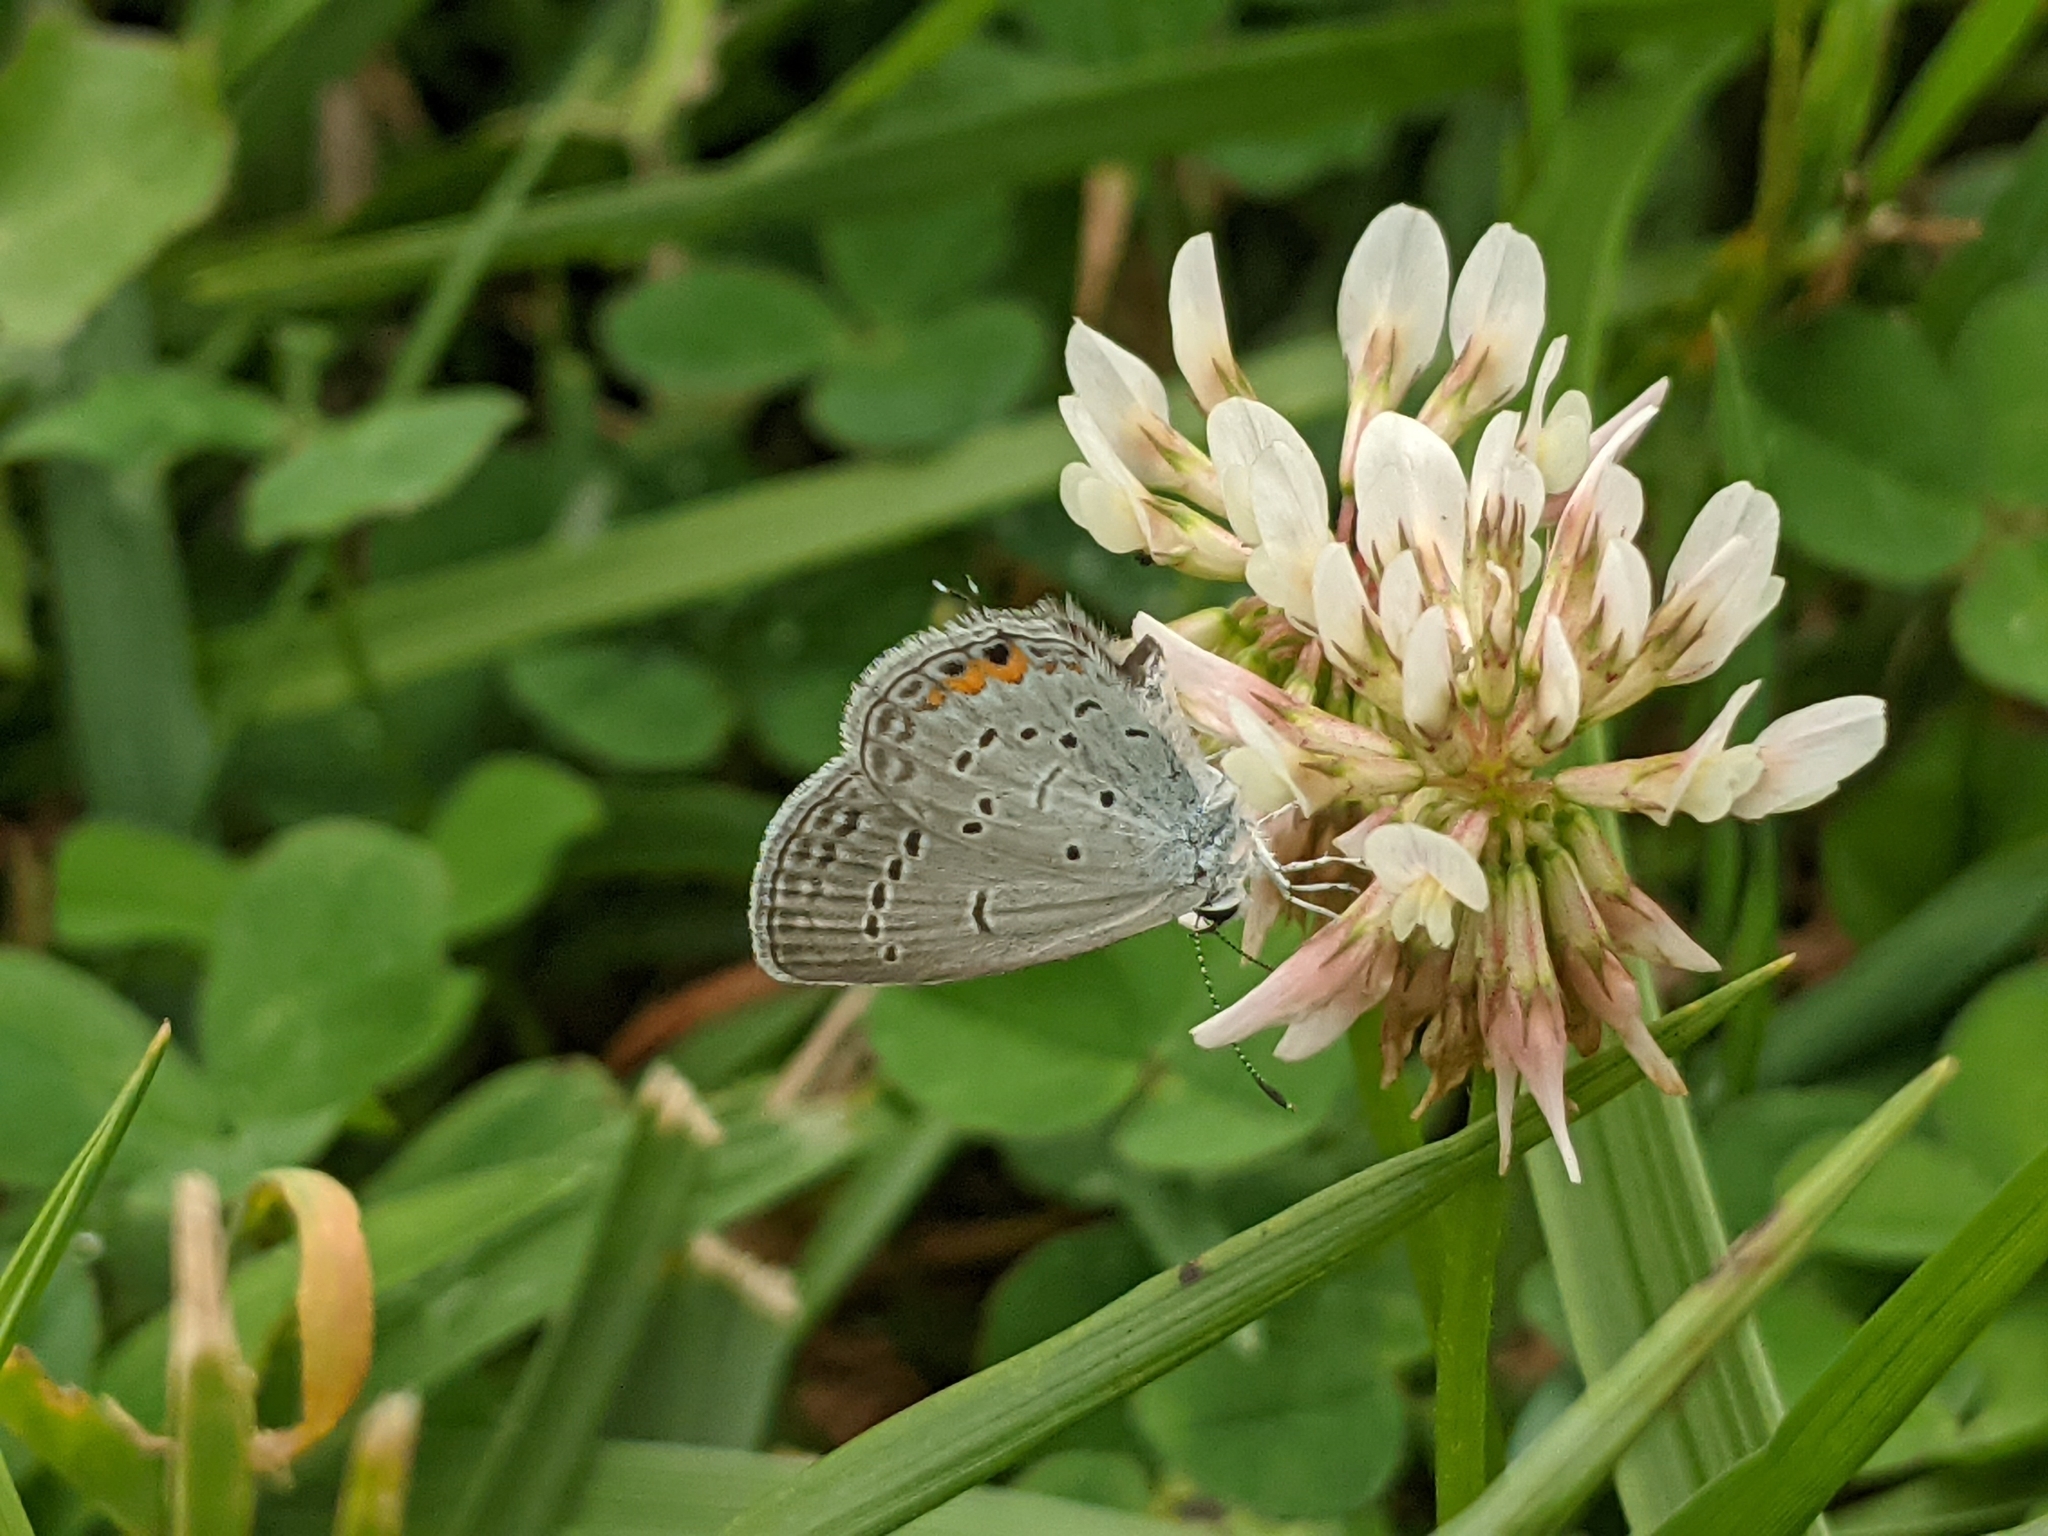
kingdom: Animalia
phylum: Arthropoda
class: Insecta
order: Lepidoptera
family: Lycaenidae
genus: Elkalyce
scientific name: Elkalyce comyntas
